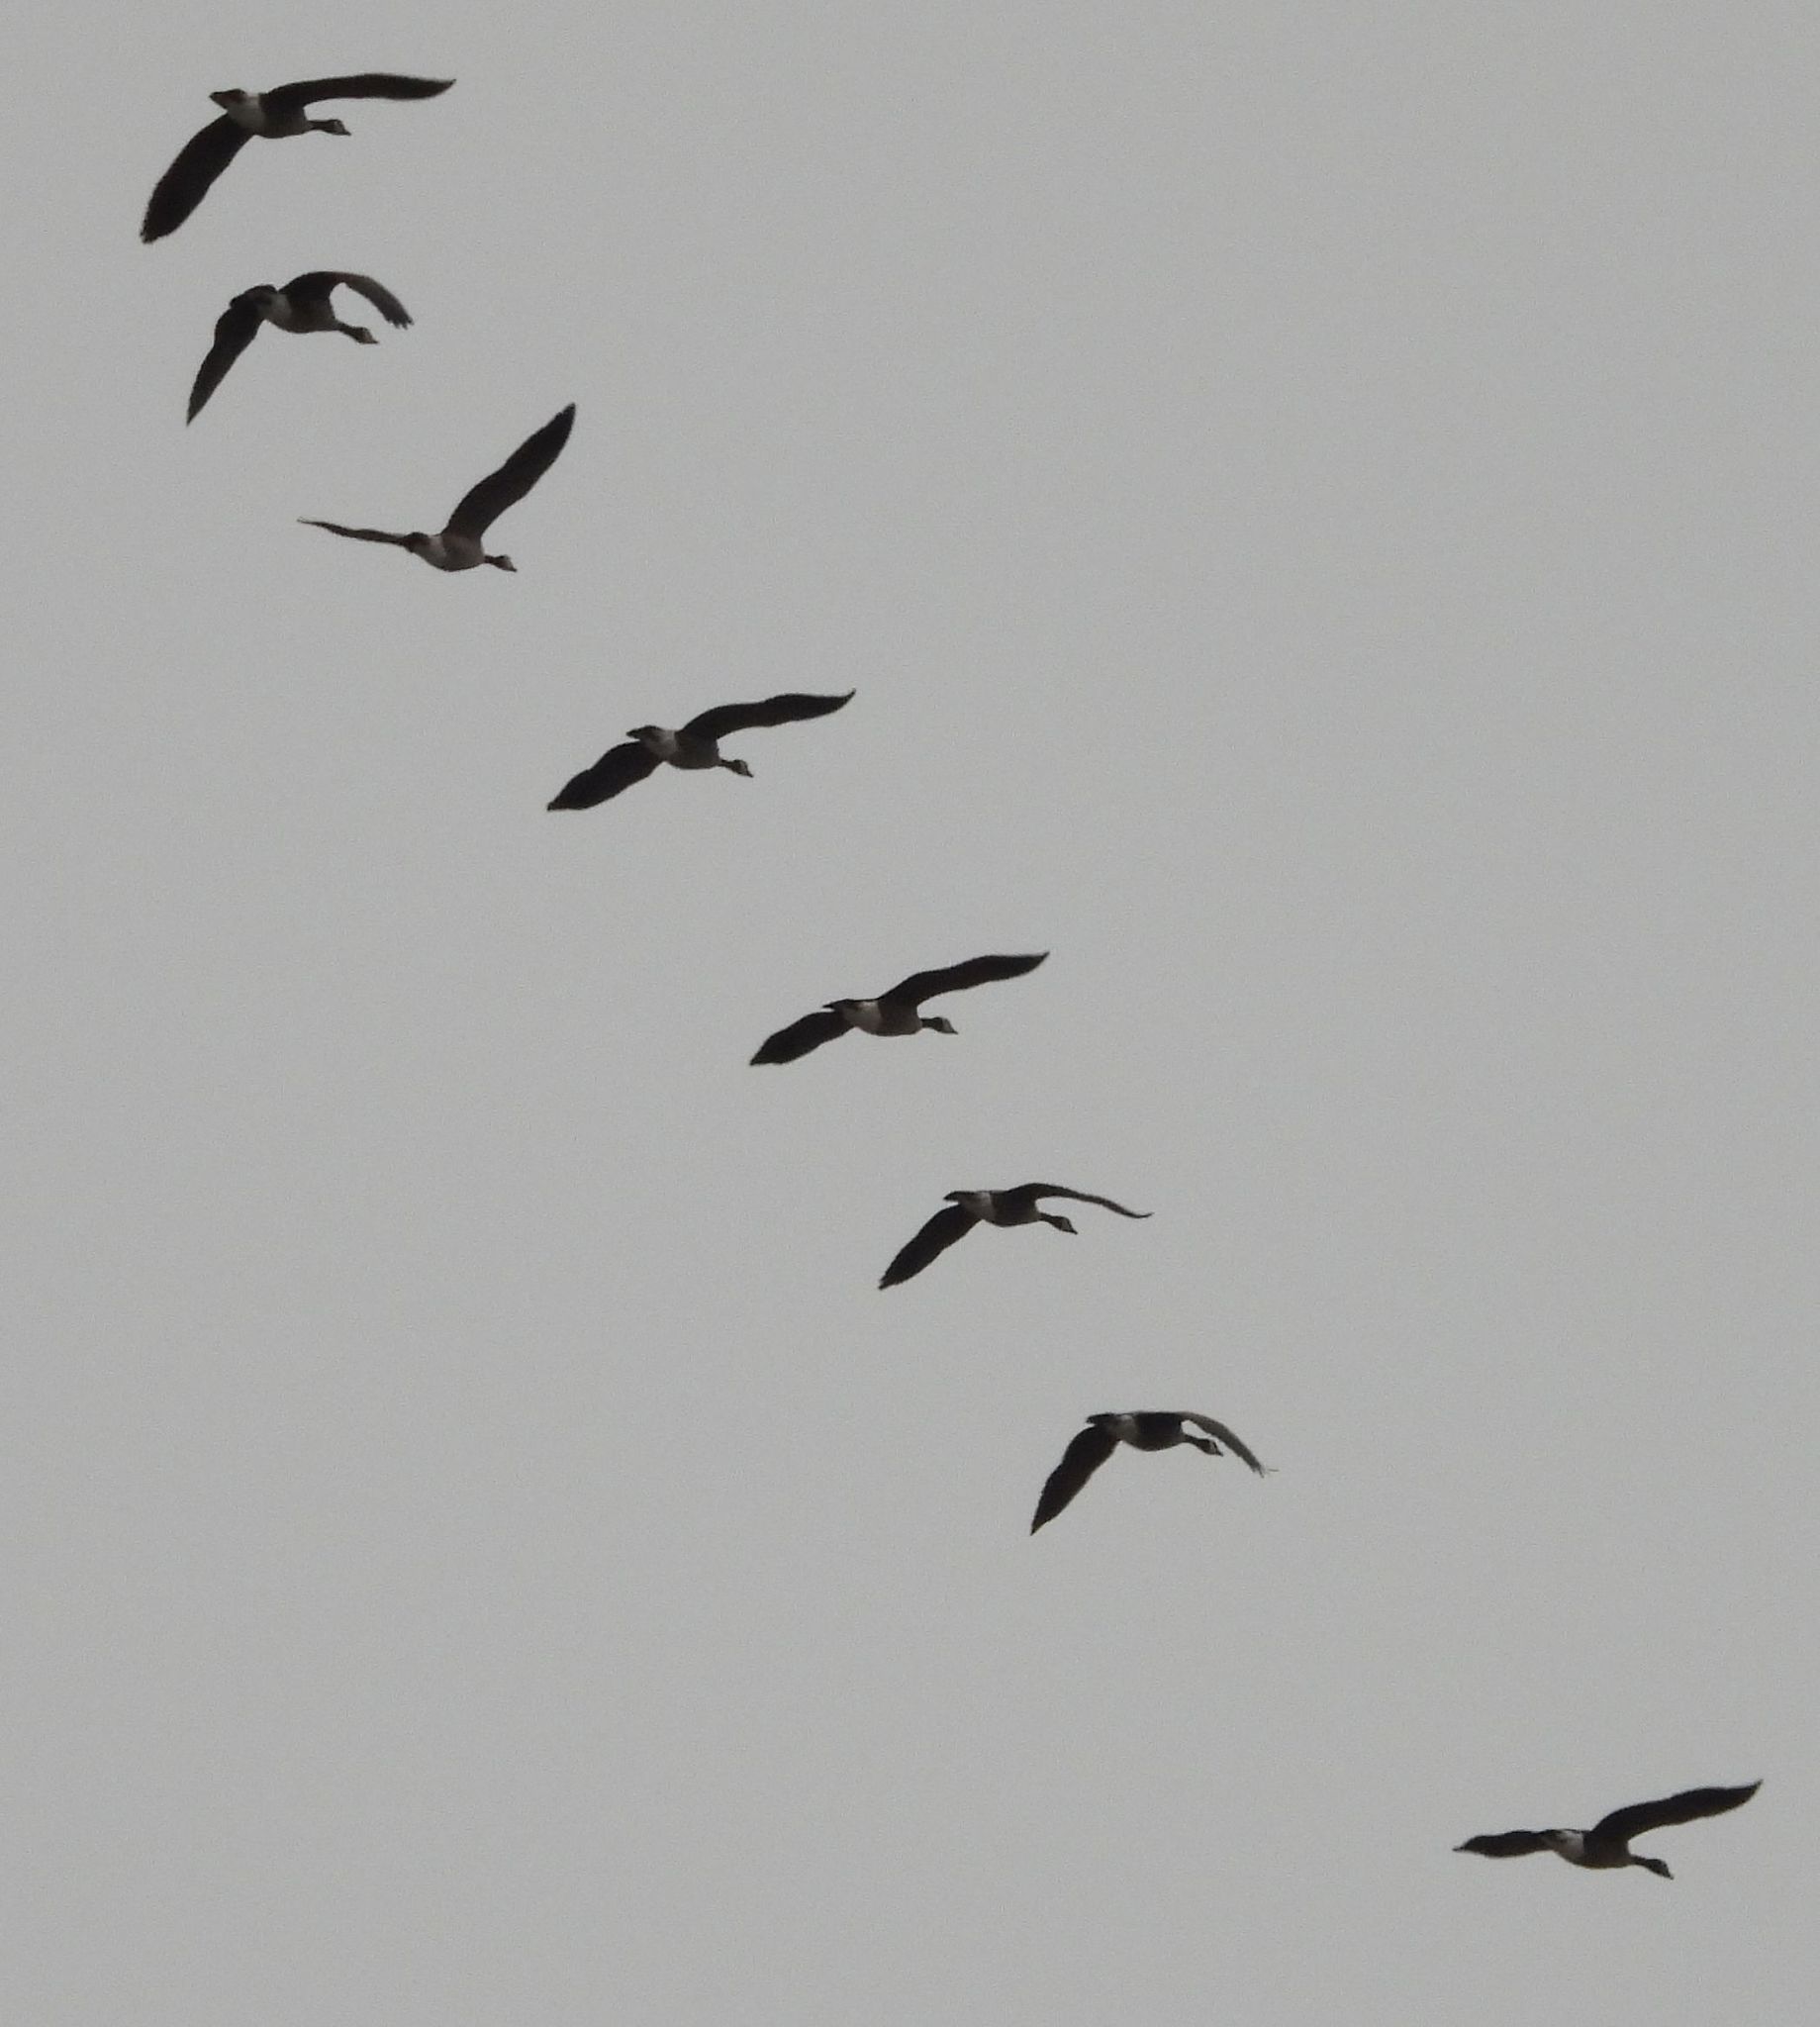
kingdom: Animalia
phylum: Chordata
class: Aves
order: Anseriformes
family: Anatidae
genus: Branta
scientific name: Branta canadensis
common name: Canada goose
